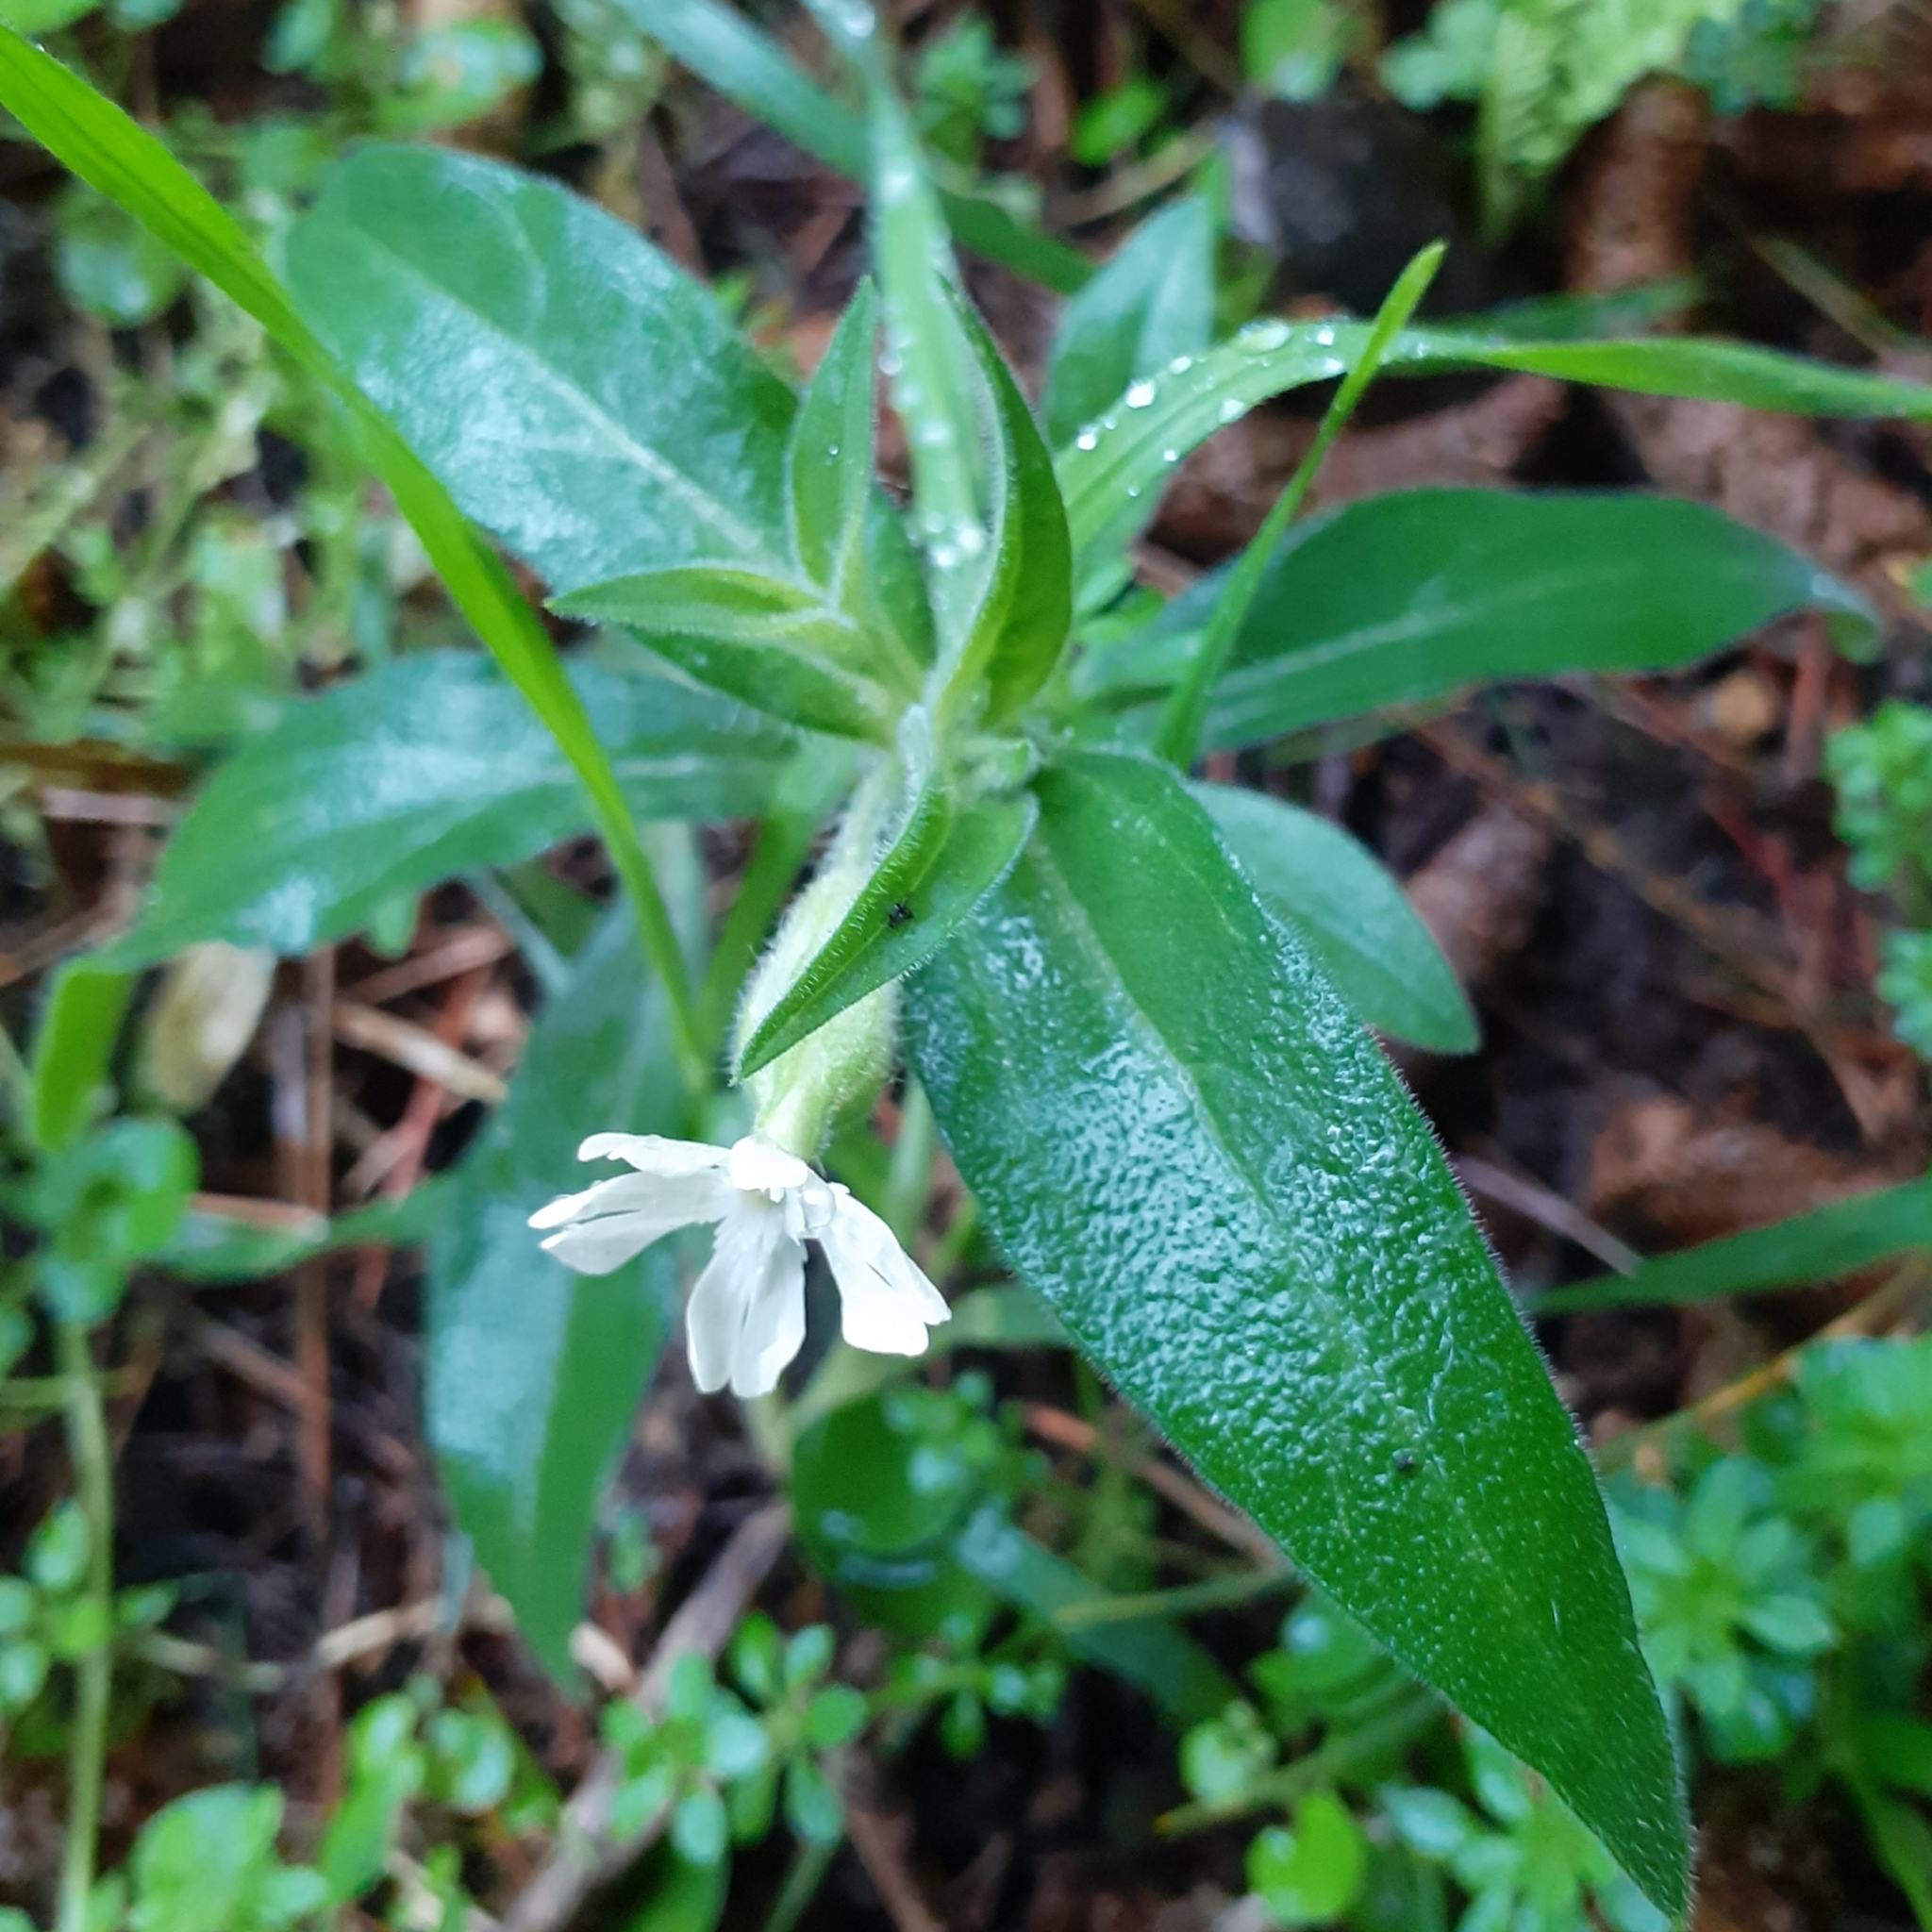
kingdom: Plantae
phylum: Tracheophyta
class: Magnoliopsida
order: Caryophyllales
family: Caryophyllaceae
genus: Silene
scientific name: Silene latifolia
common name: White campion
